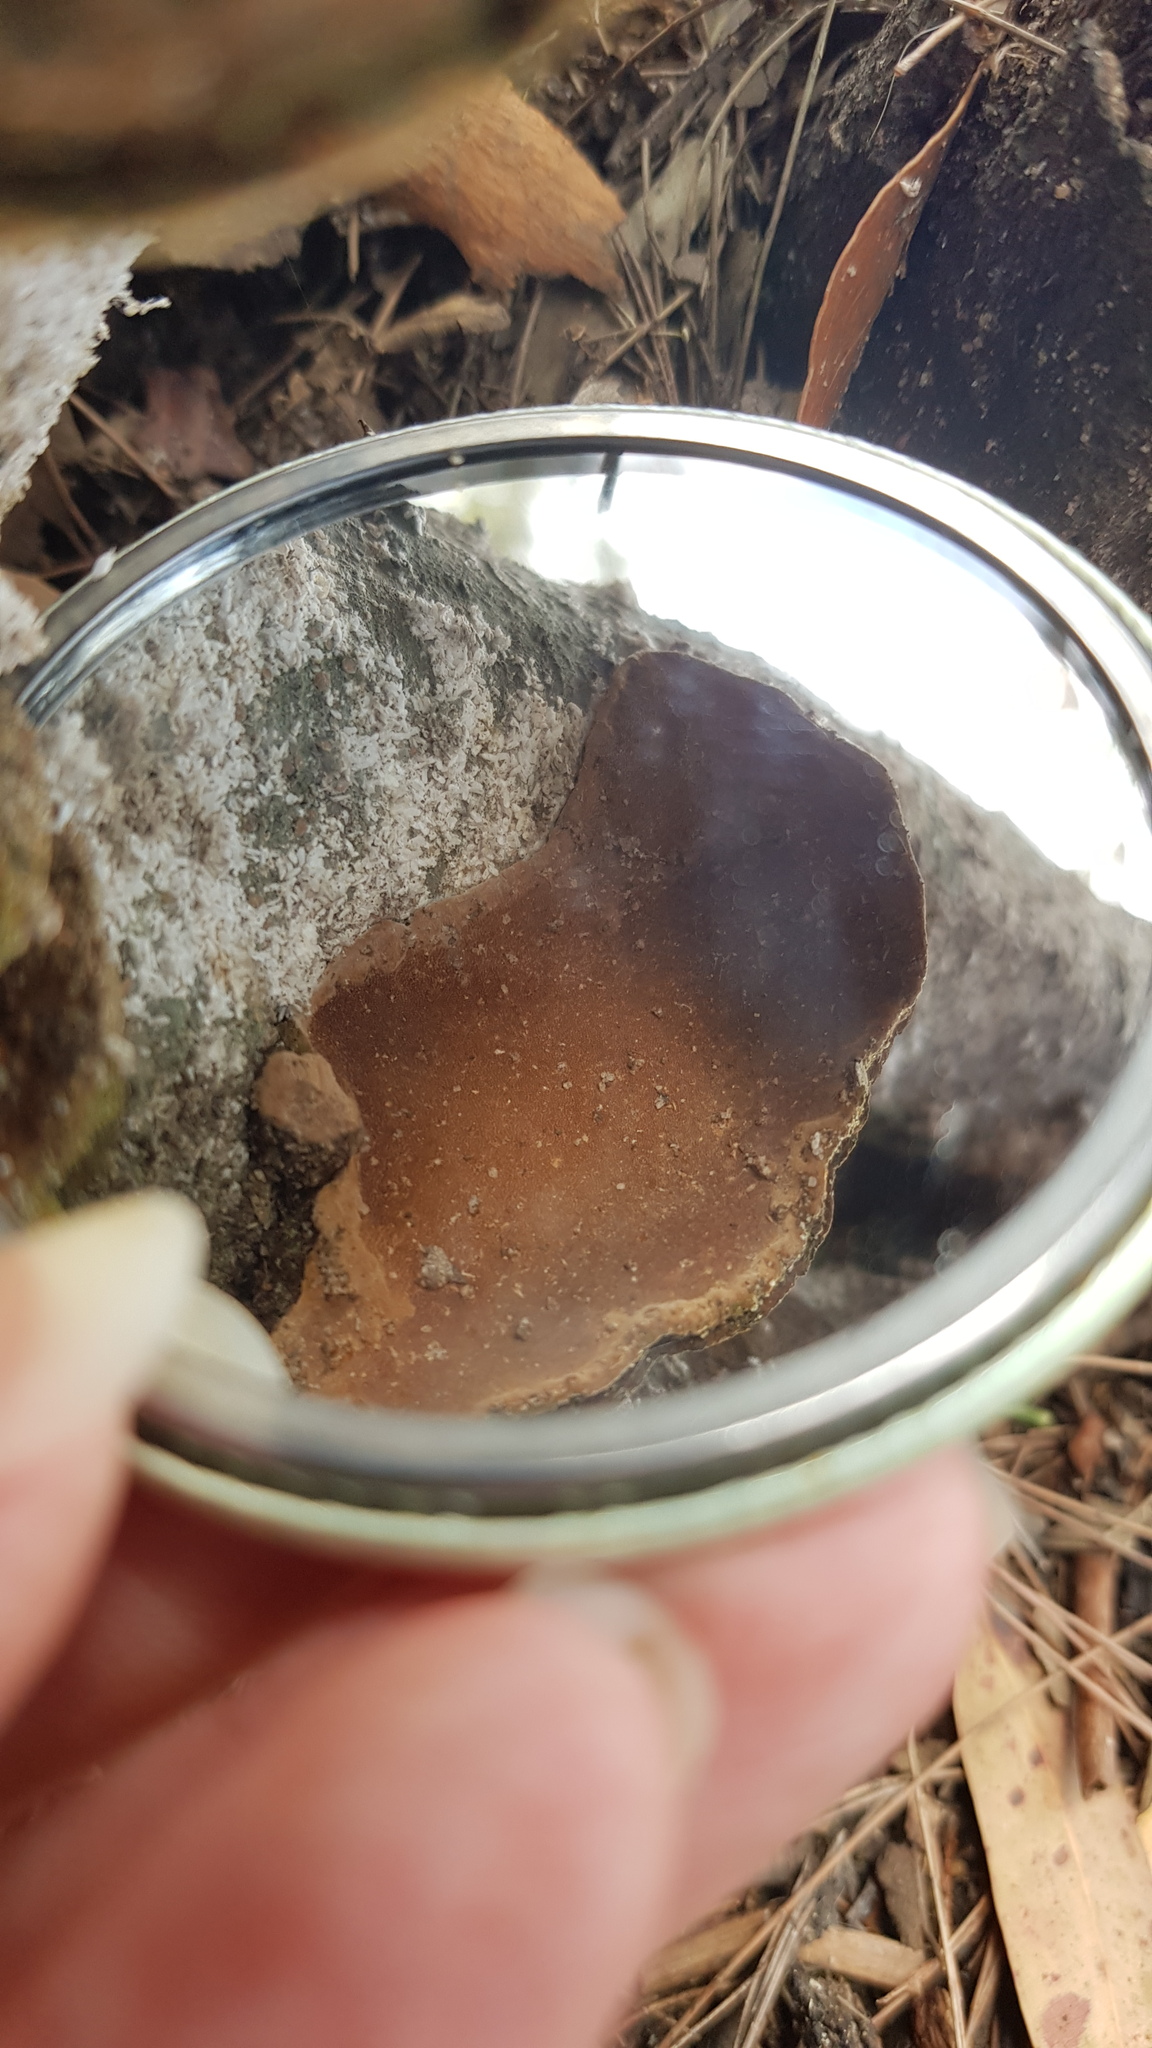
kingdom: Fungi
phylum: Basidiomycota
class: Agaricomycetes
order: Hymenochaetales
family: Hymenochaetaceae
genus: Fuscoporia
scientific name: Fuscoporia wahlbergii
